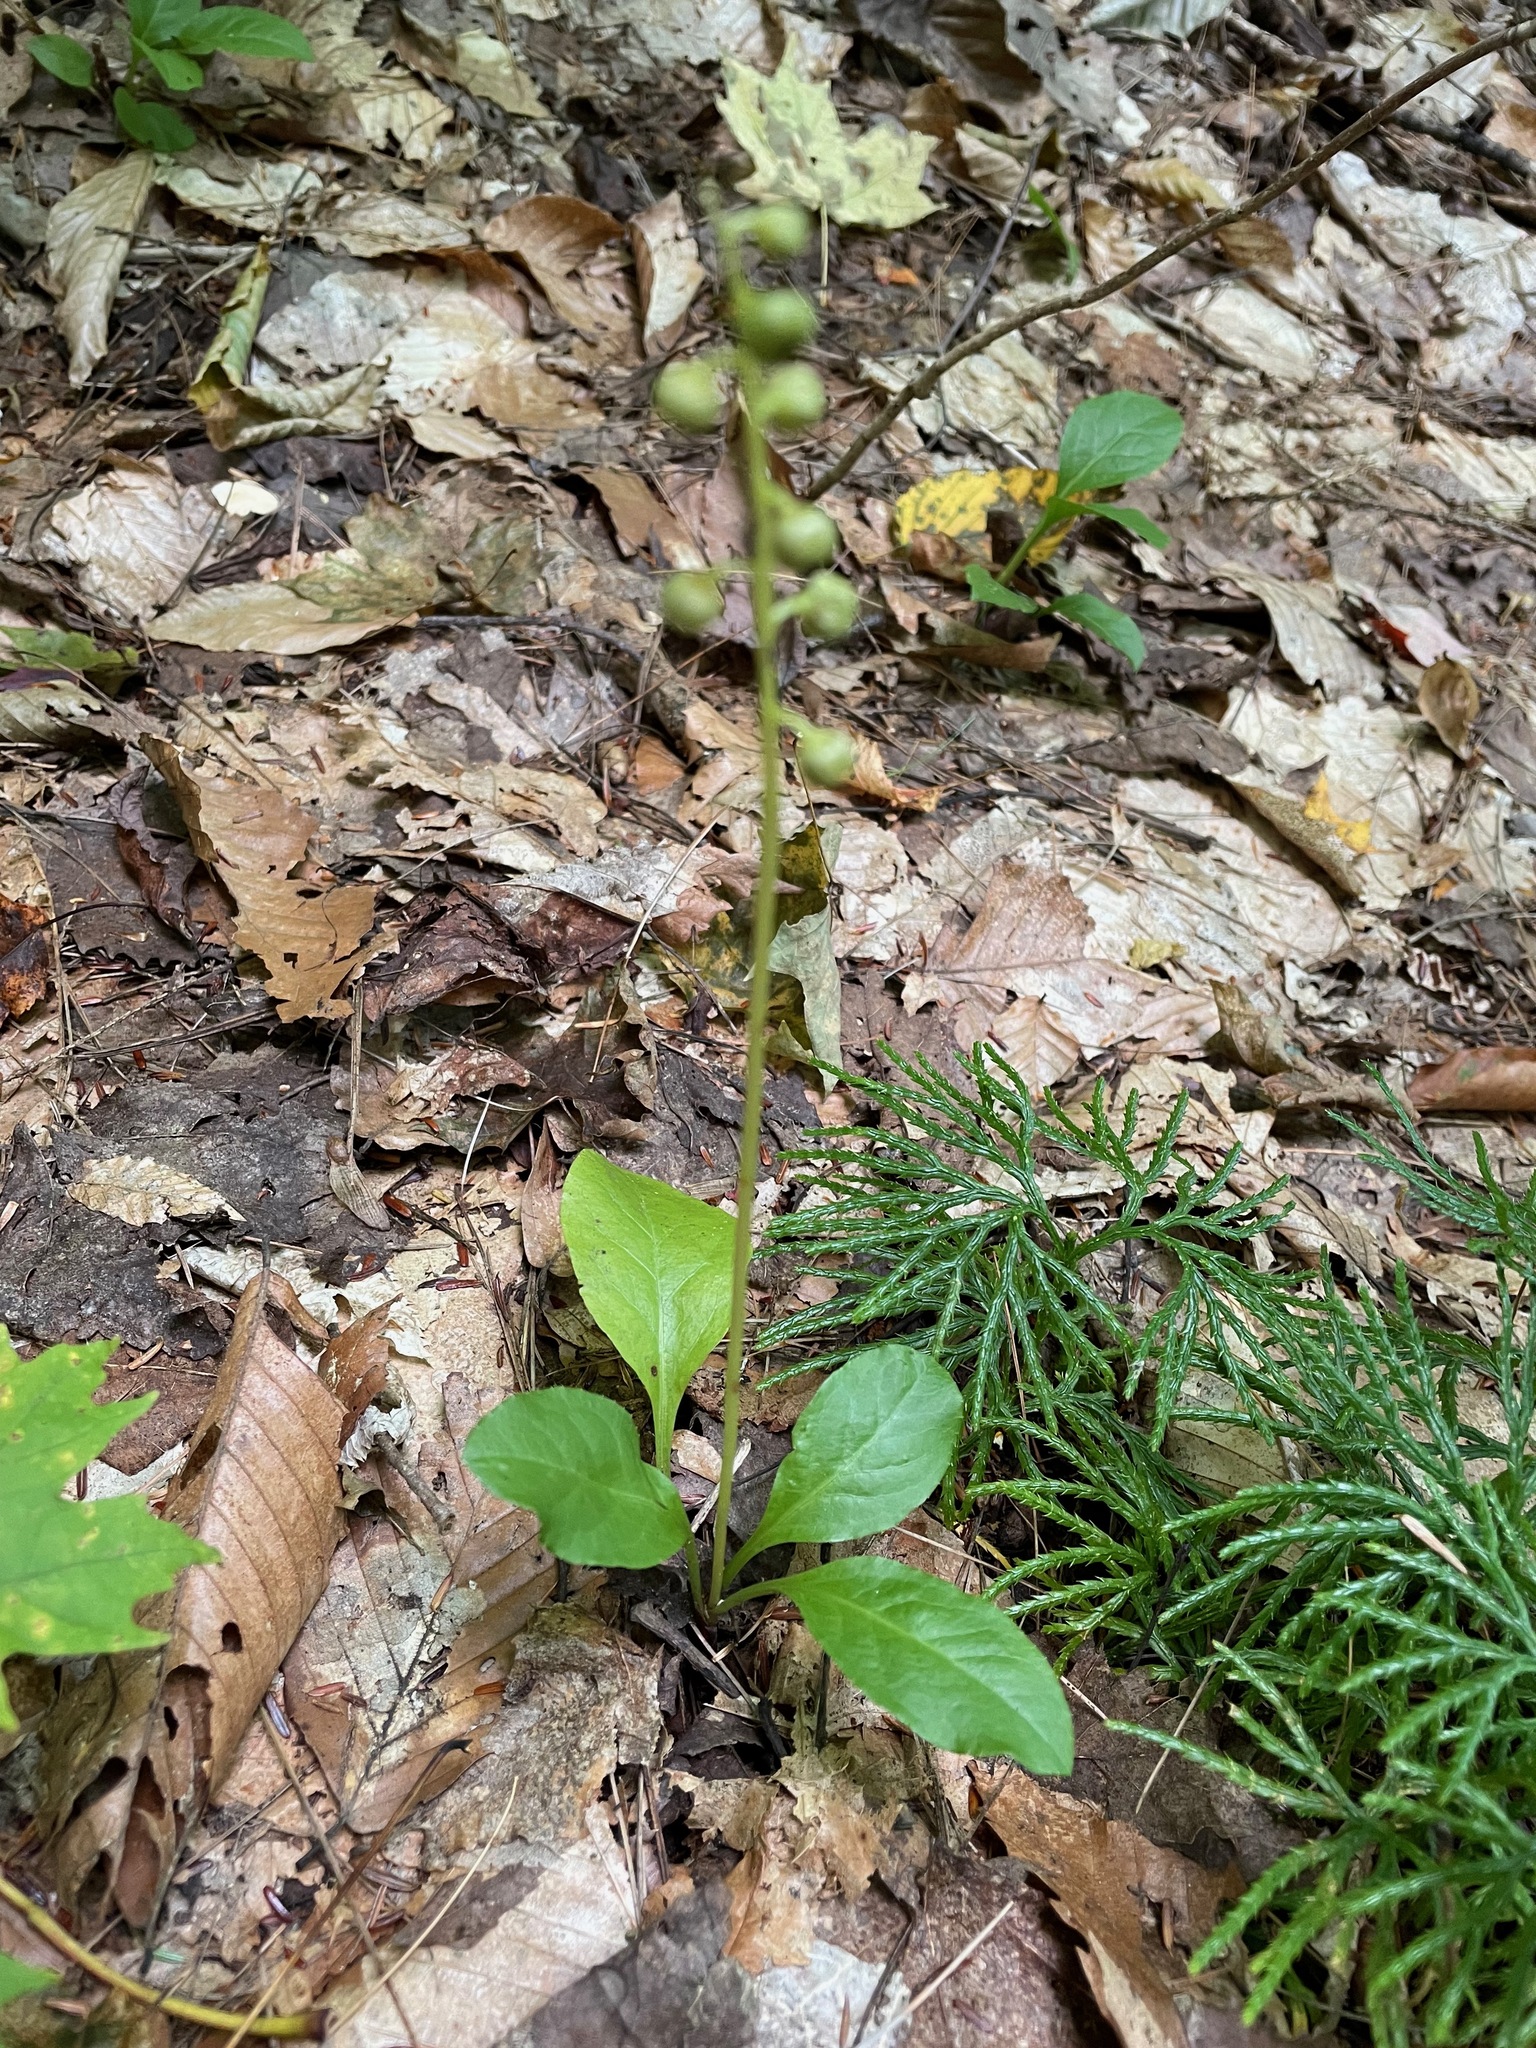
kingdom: Plantae
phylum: Tracheophyta
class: Magnoliopsida
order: Ericales
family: Ericaceae
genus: Pyrola
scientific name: Pyrola elliptica
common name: Shinleaf
